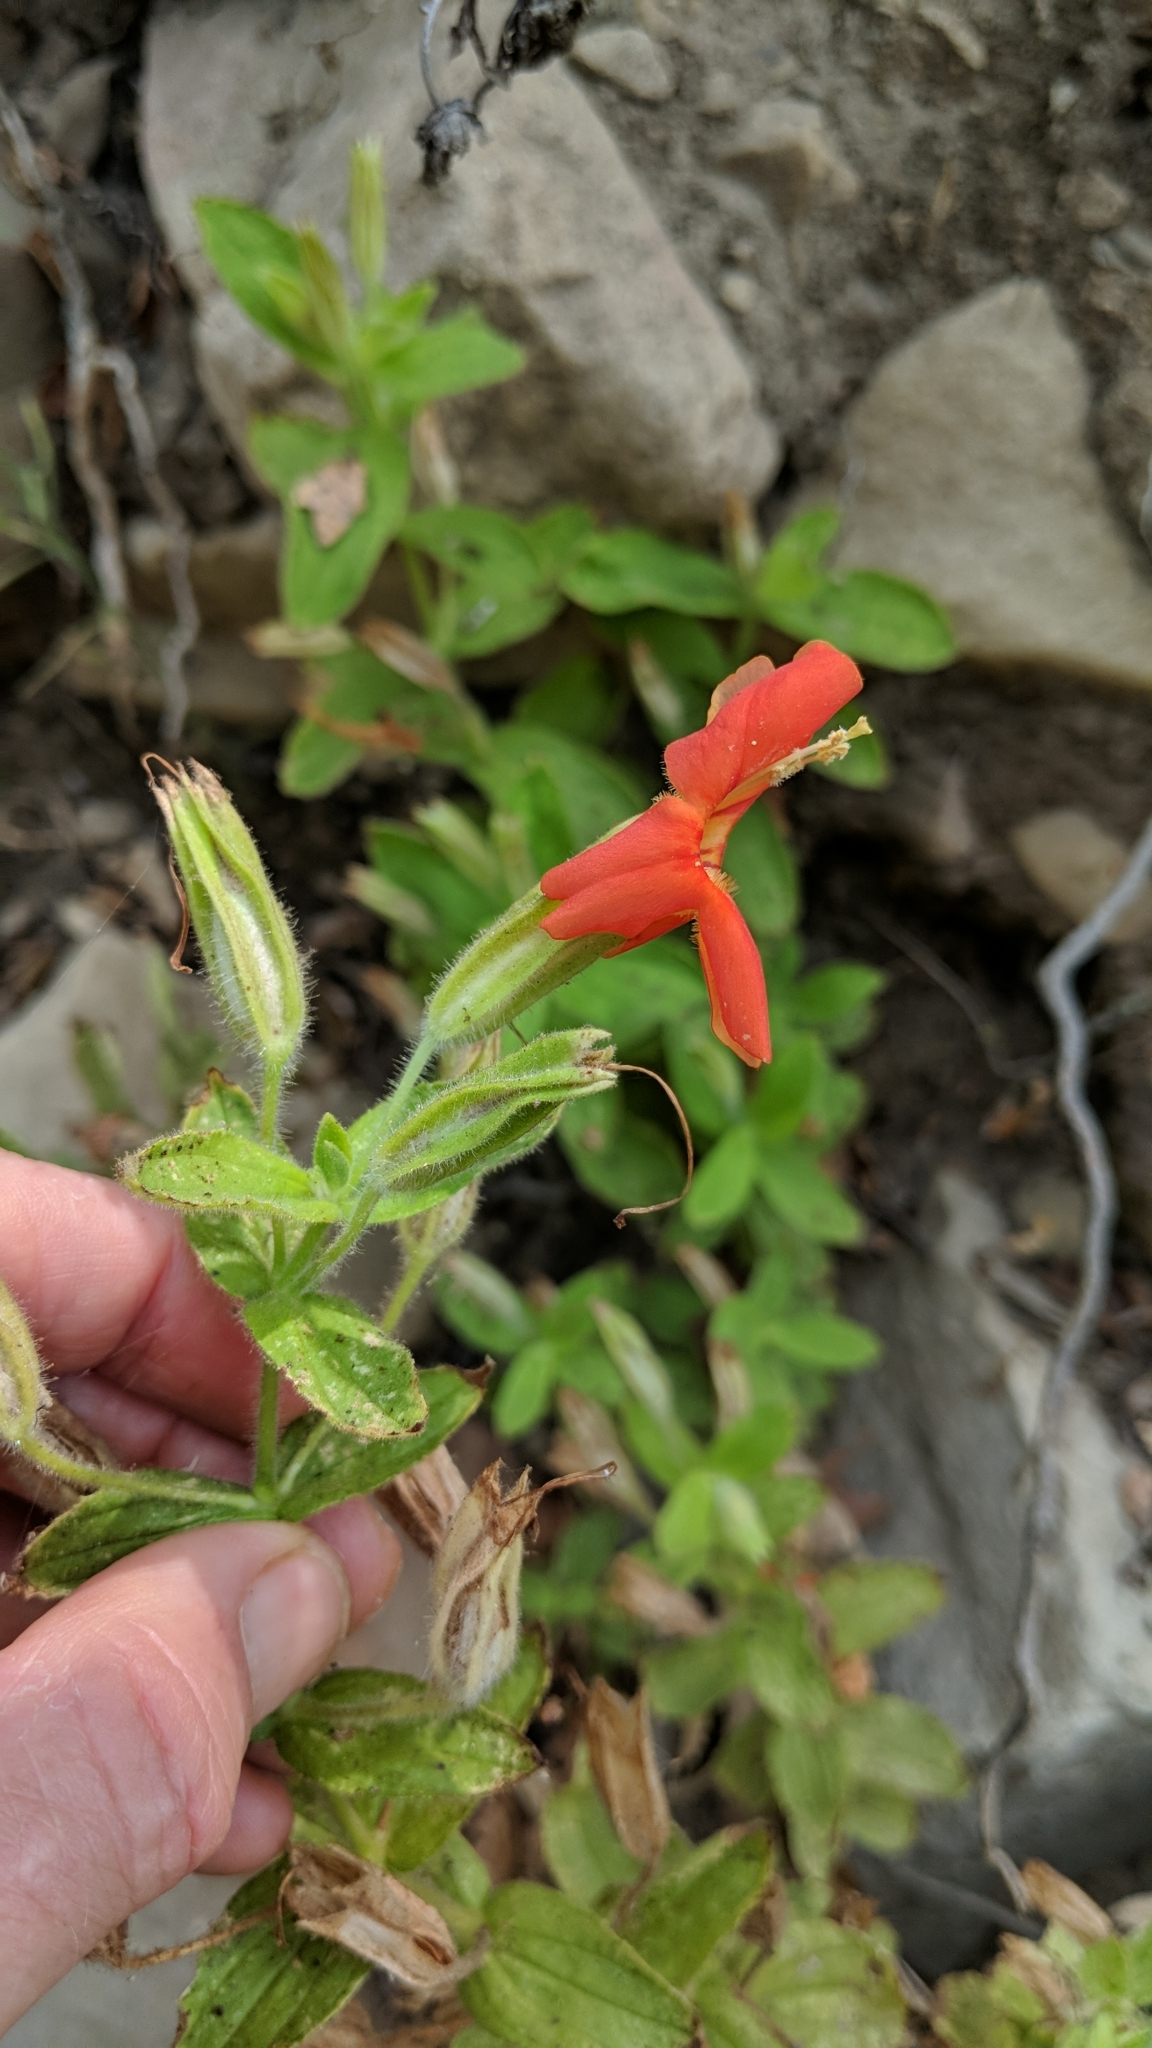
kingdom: Plantae
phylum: Tracheophyta
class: Magnoliopsida
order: Lamiales
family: Phrymaceae
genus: Erythranthe
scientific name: Erythranthe cardinalis
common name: Scarlet monkey-flower
